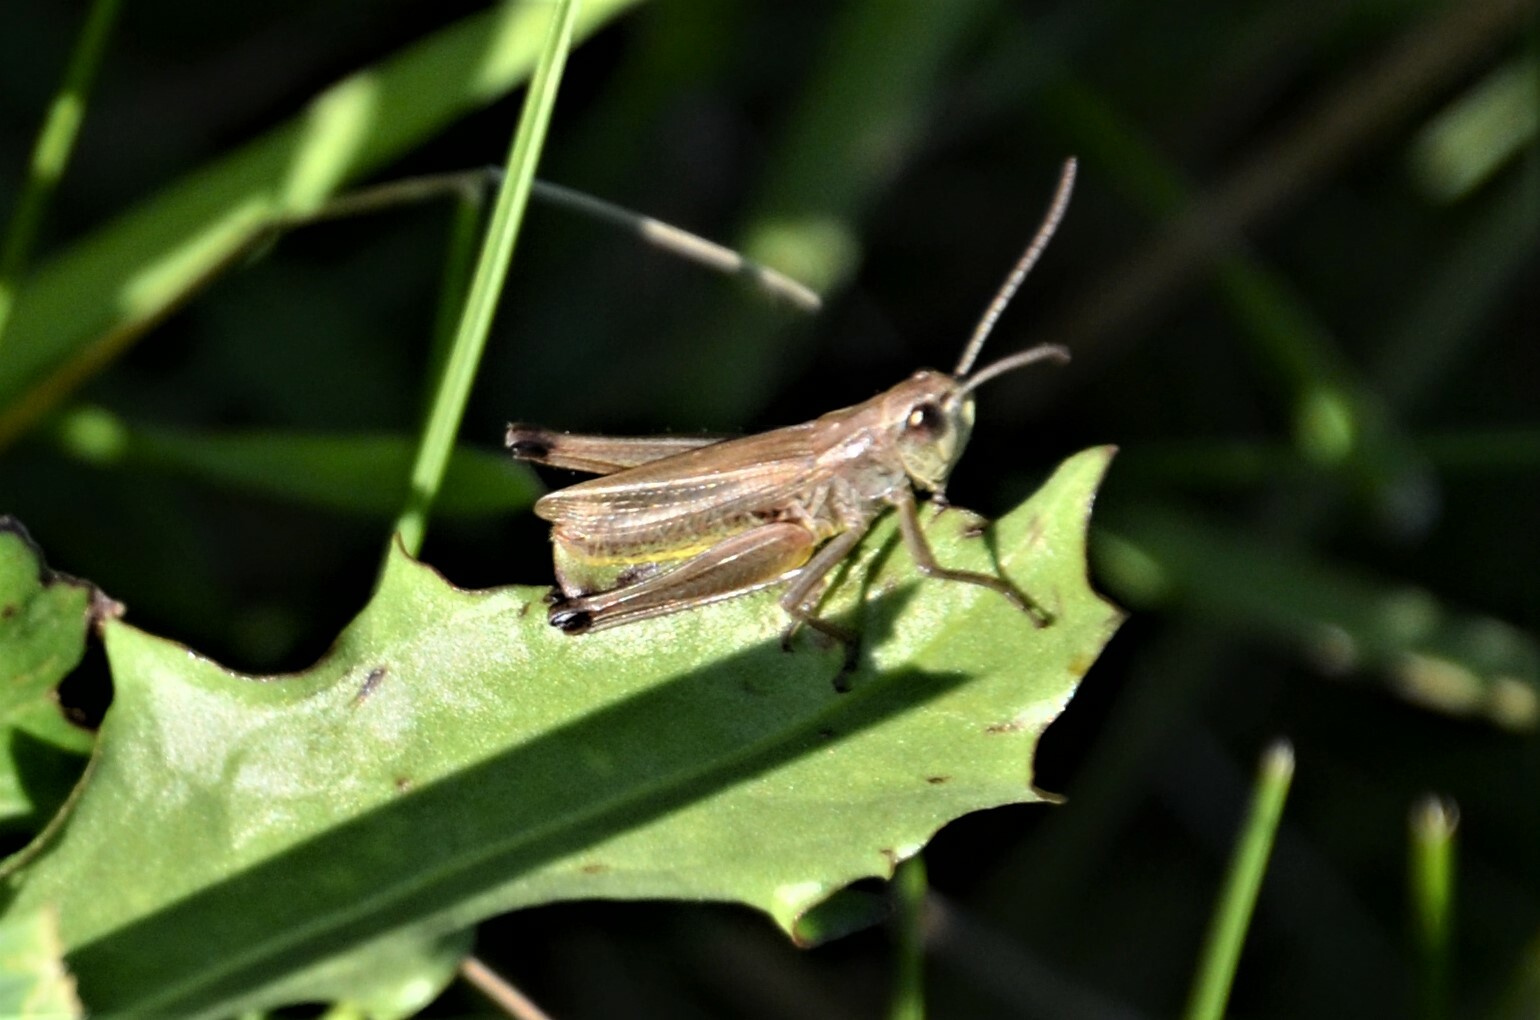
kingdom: Animalia
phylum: Arthropoda
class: Insecta
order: Orthoptera
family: Acrididae
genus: Pseudochorthippus
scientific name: Pseudochorthippus parallelus
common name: Meadow grasshopper
